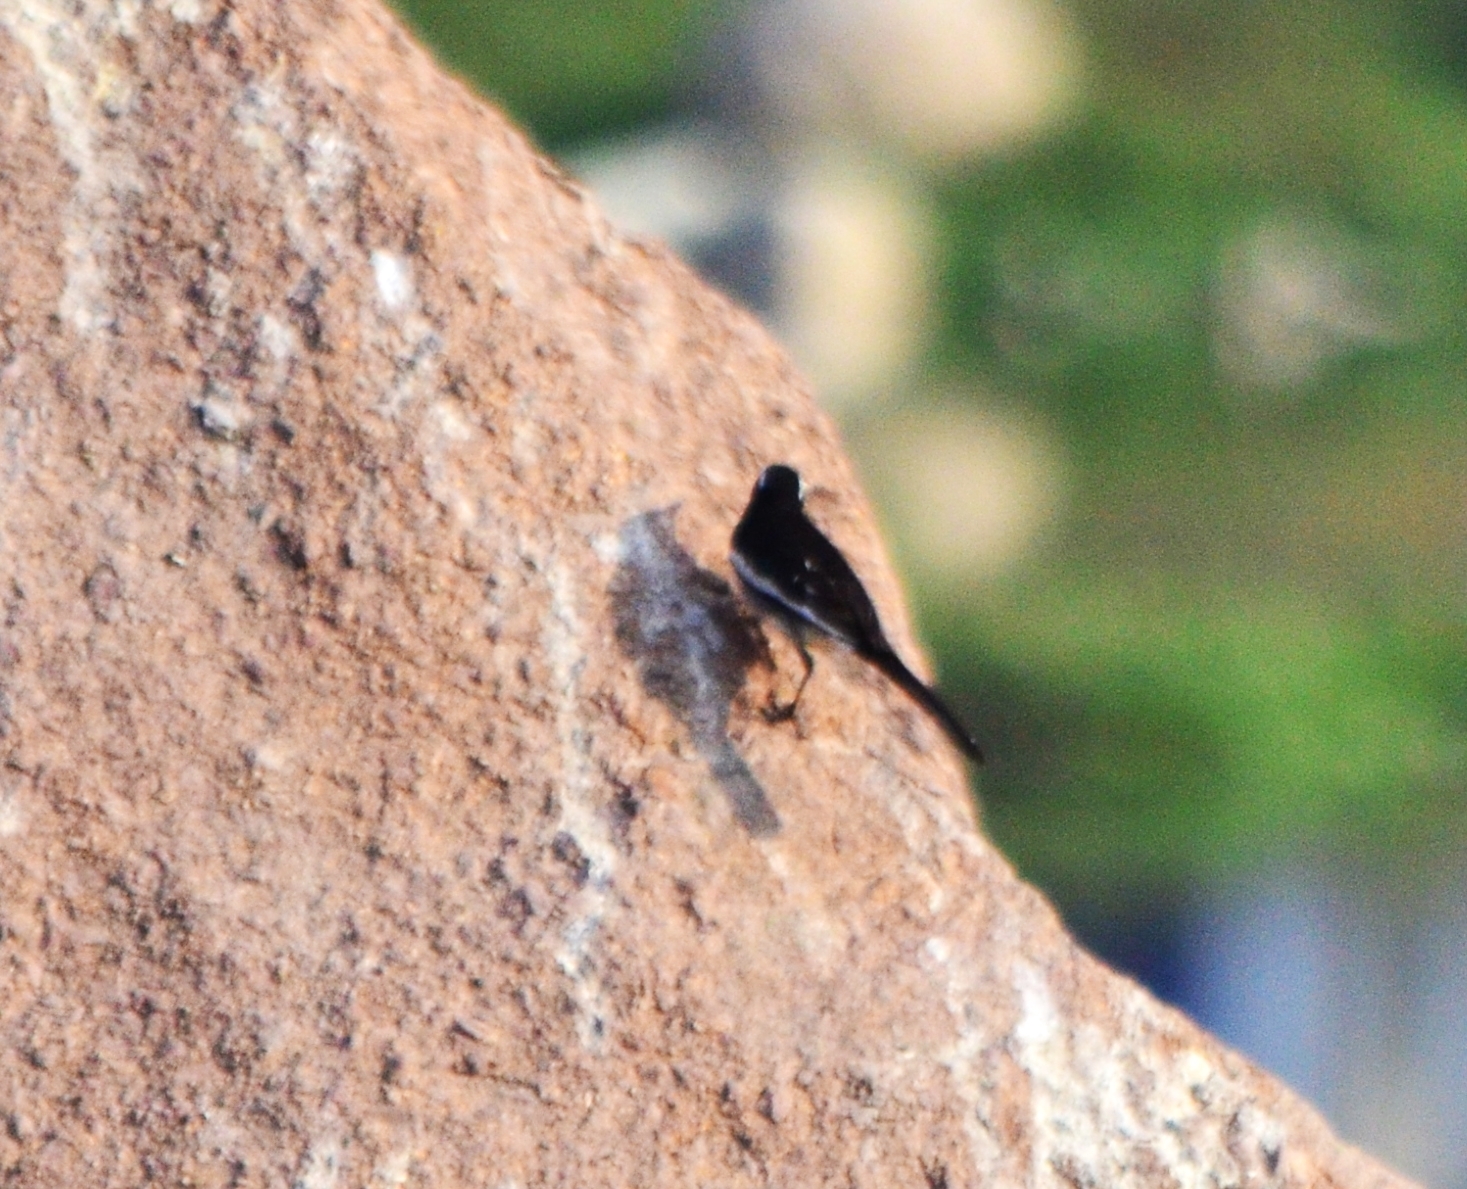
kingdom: Animalia
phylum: Chordata
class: Aves
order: Passeriformes
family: Motacillidae
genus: Motacilla
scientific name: Motacilla maderaspatensis
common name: White-browed wagtail
